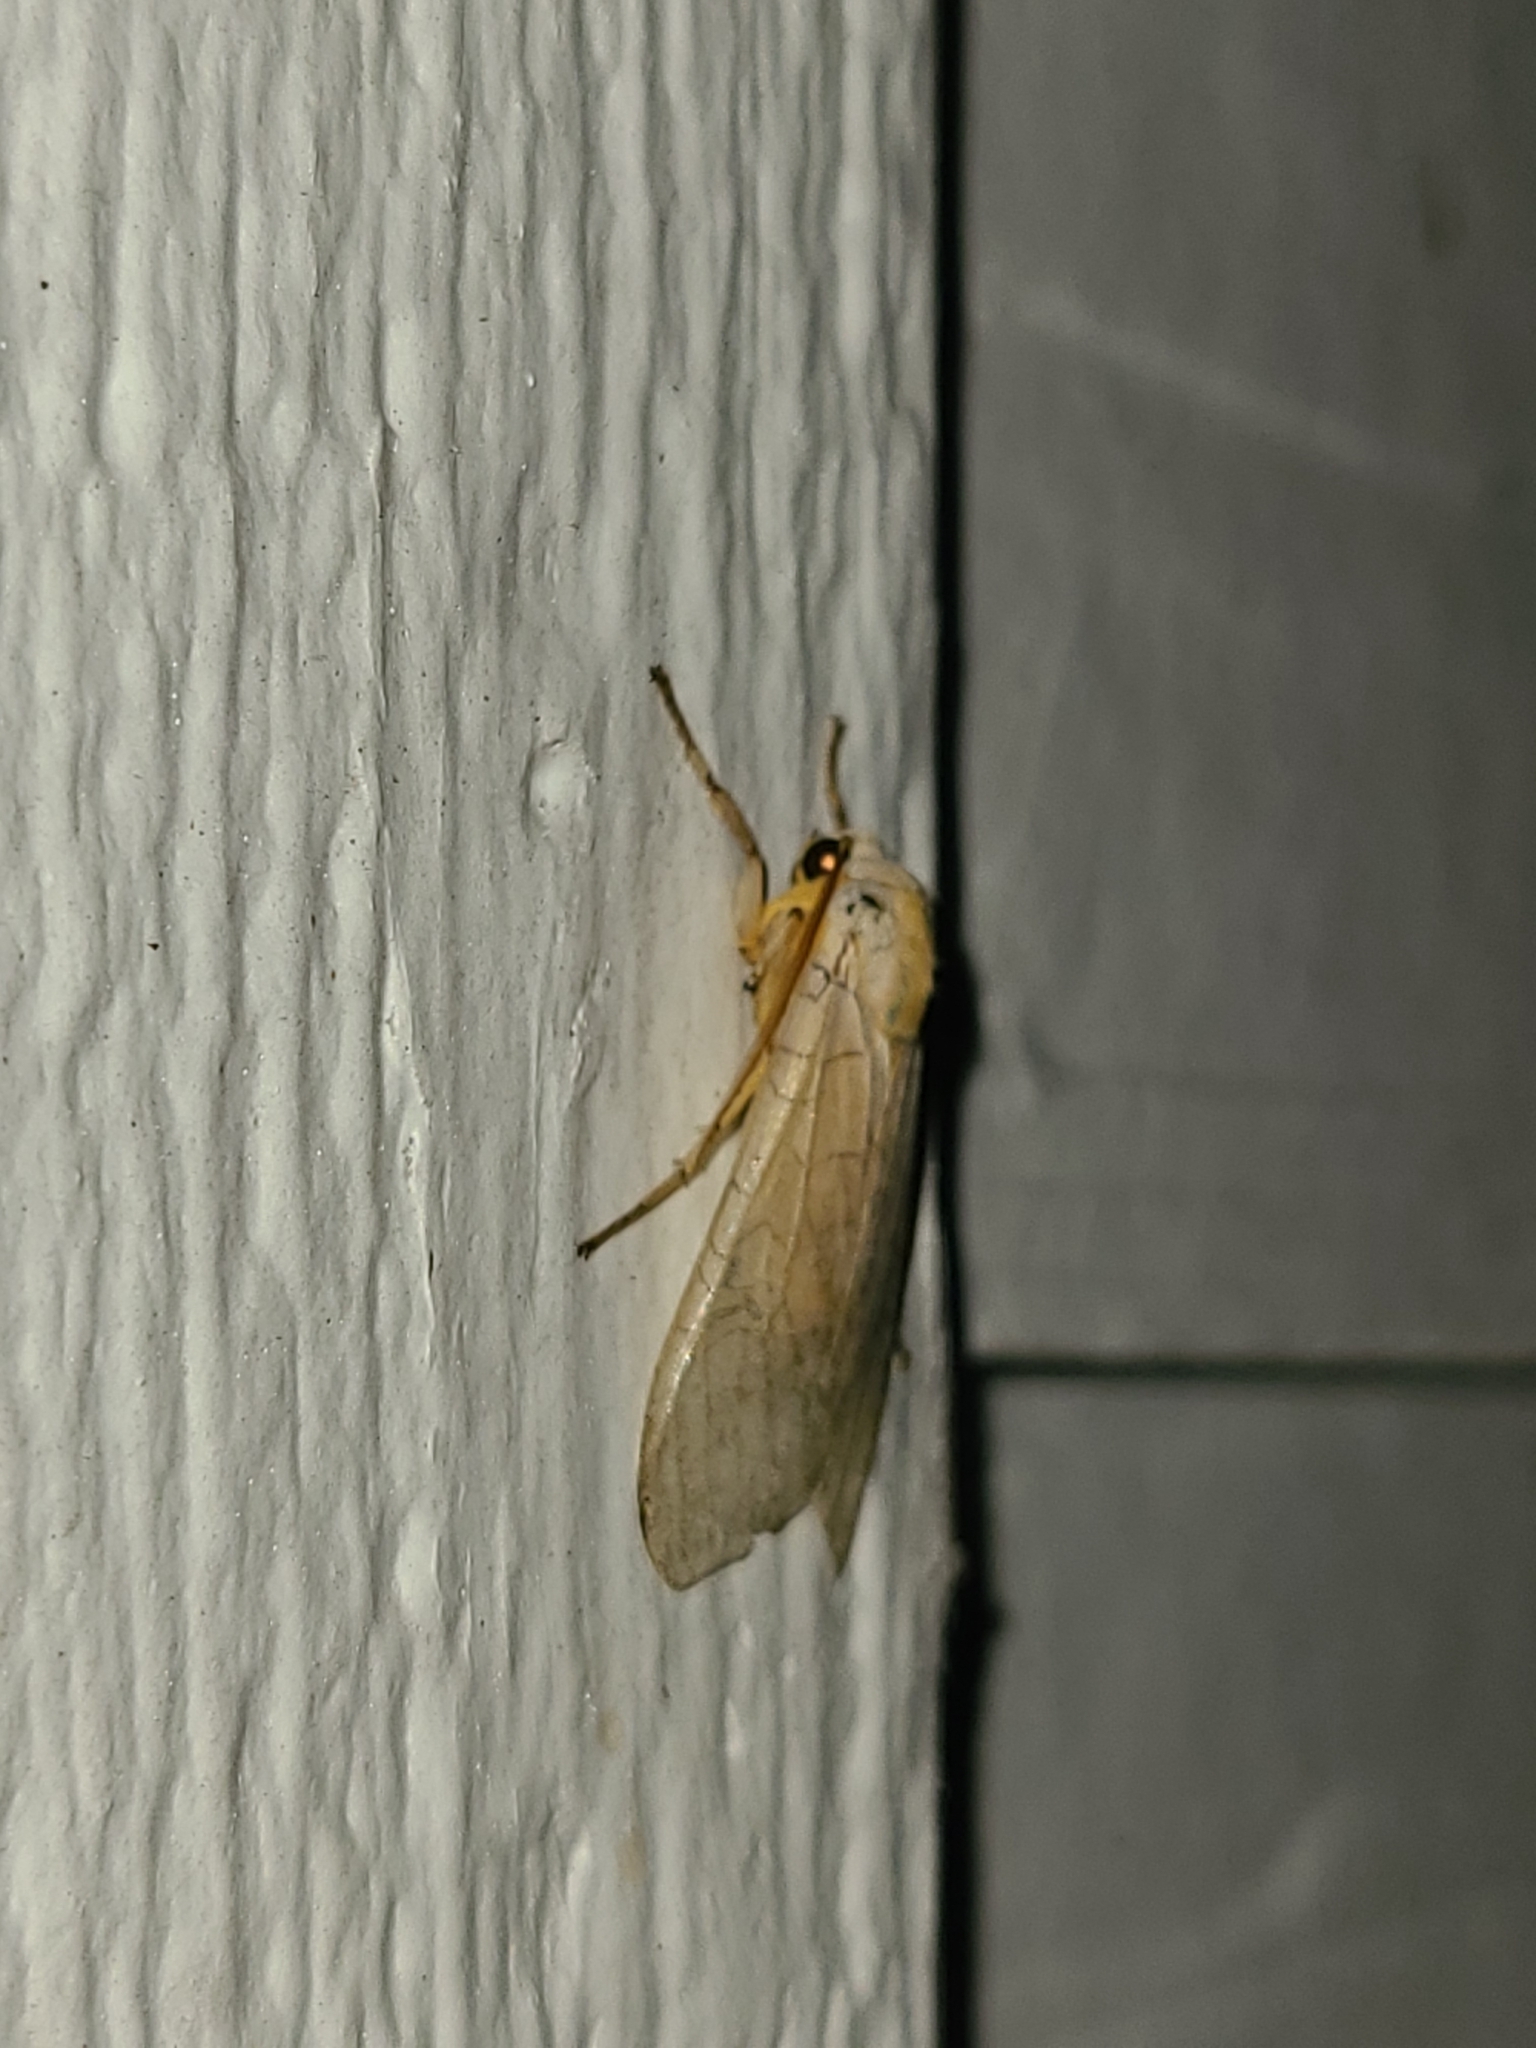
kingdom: Animalia
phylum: Arthropoda
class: Insecta
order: Lepidoptera
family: Erebidae
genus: Halysidota
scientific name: Halysidota
